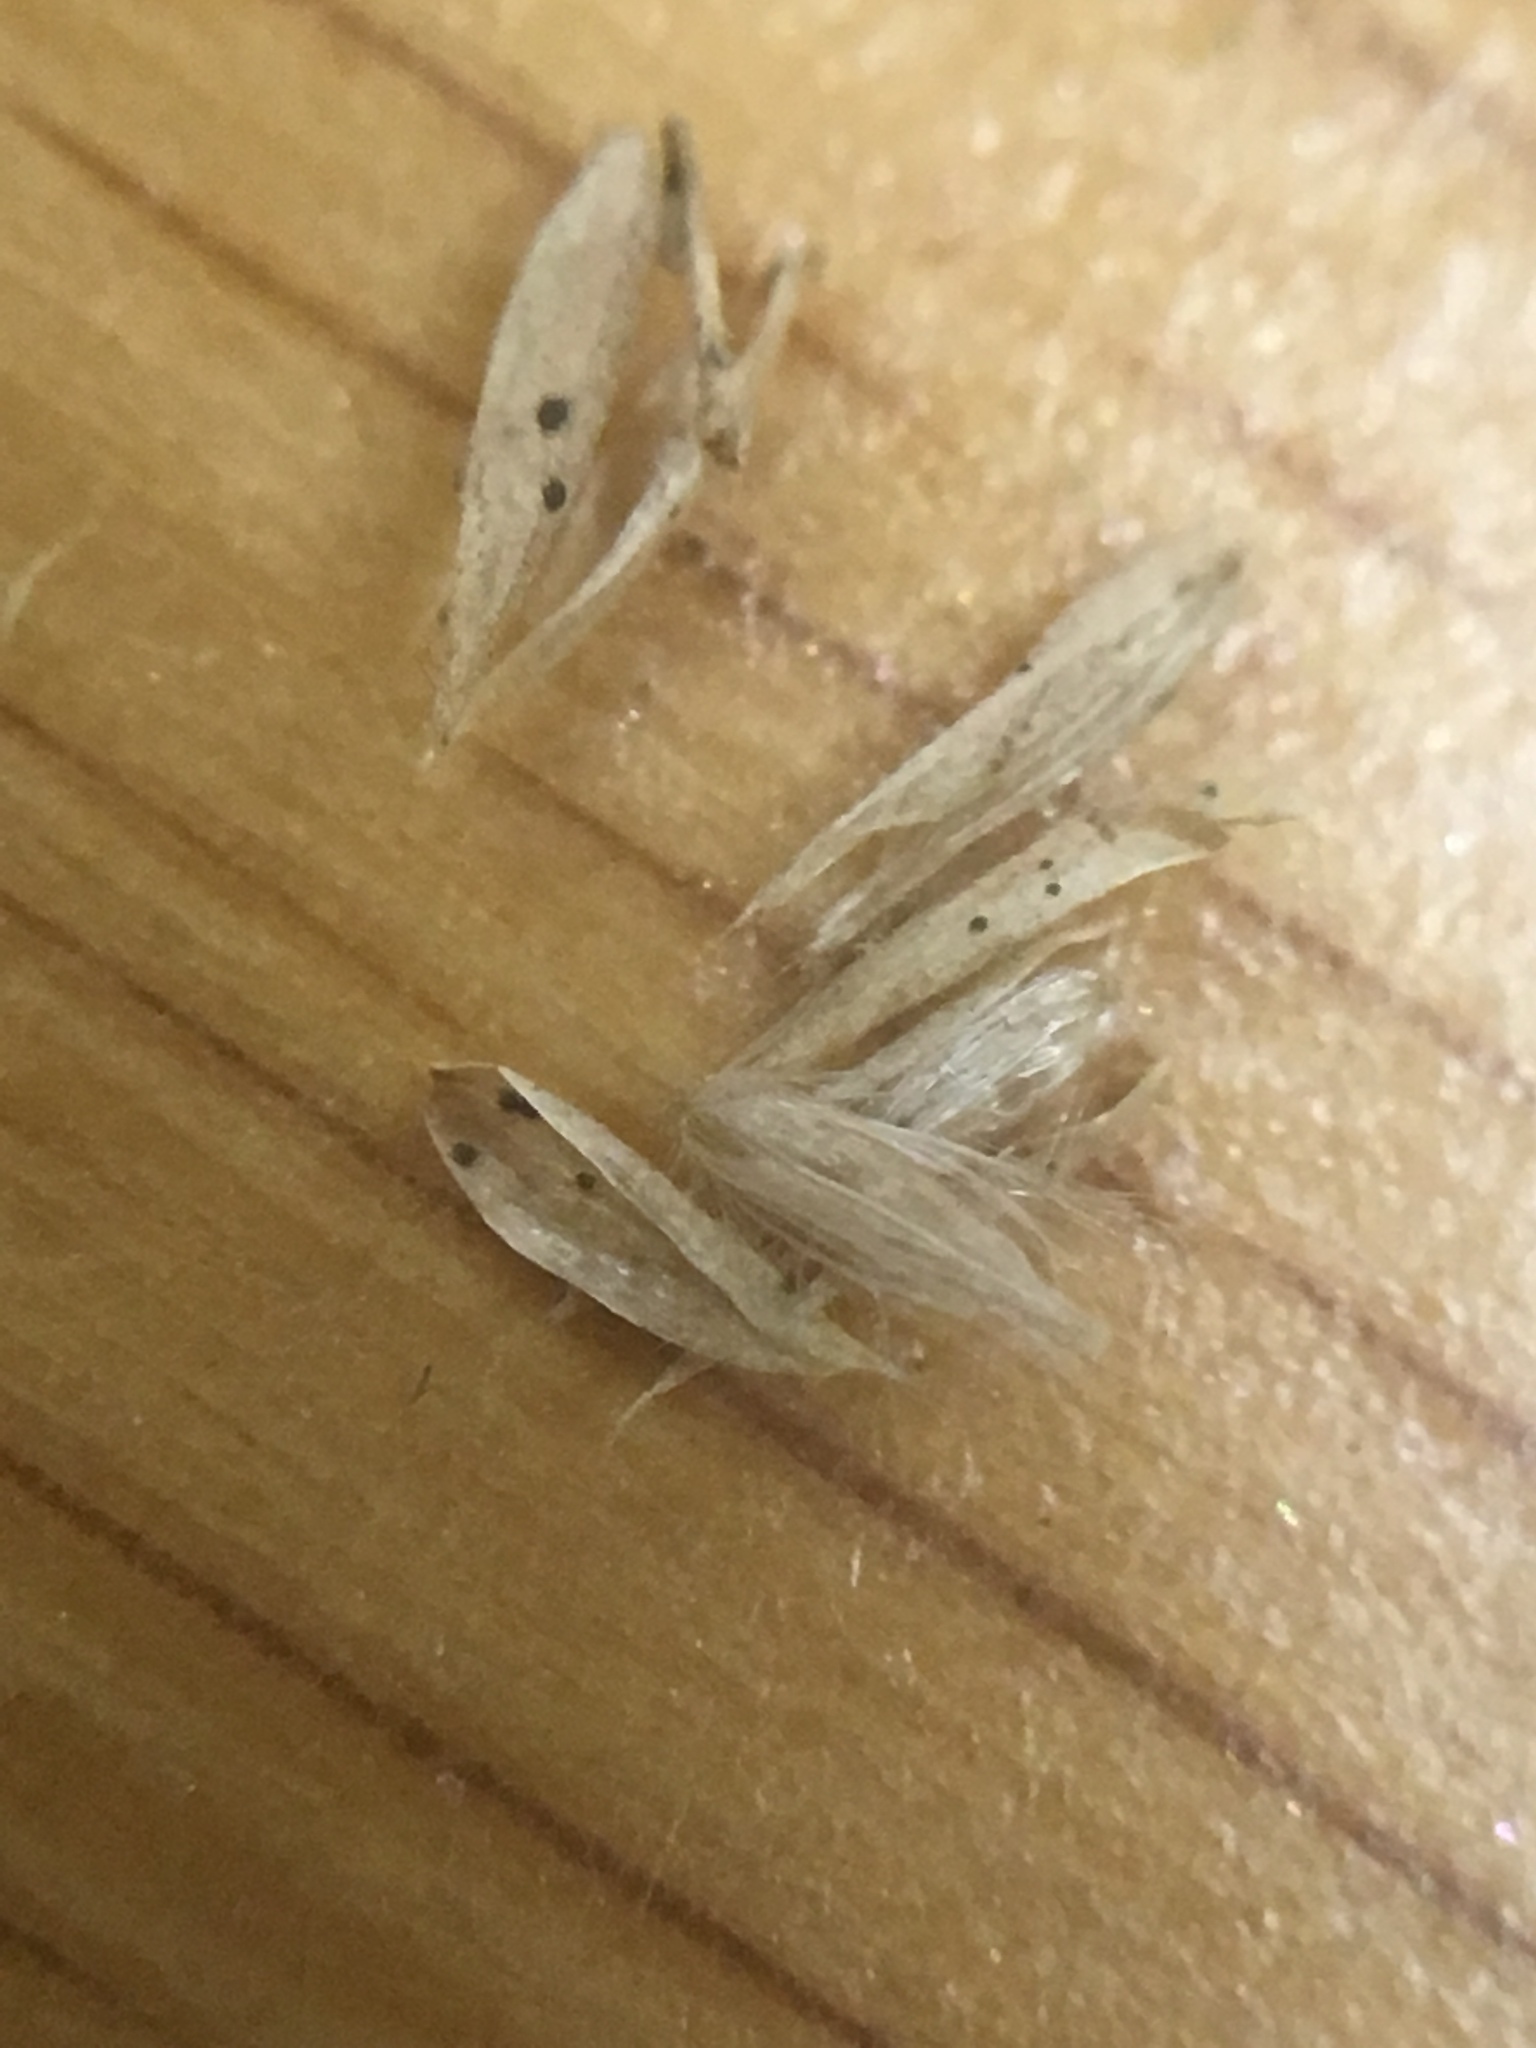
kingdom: Plantae
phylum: Tracheophyta
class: Liliopsida
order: Poales
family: Poaceae
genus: Calamagrostis
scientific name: Calamagrostis canadensis
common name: Canada bluejoint
